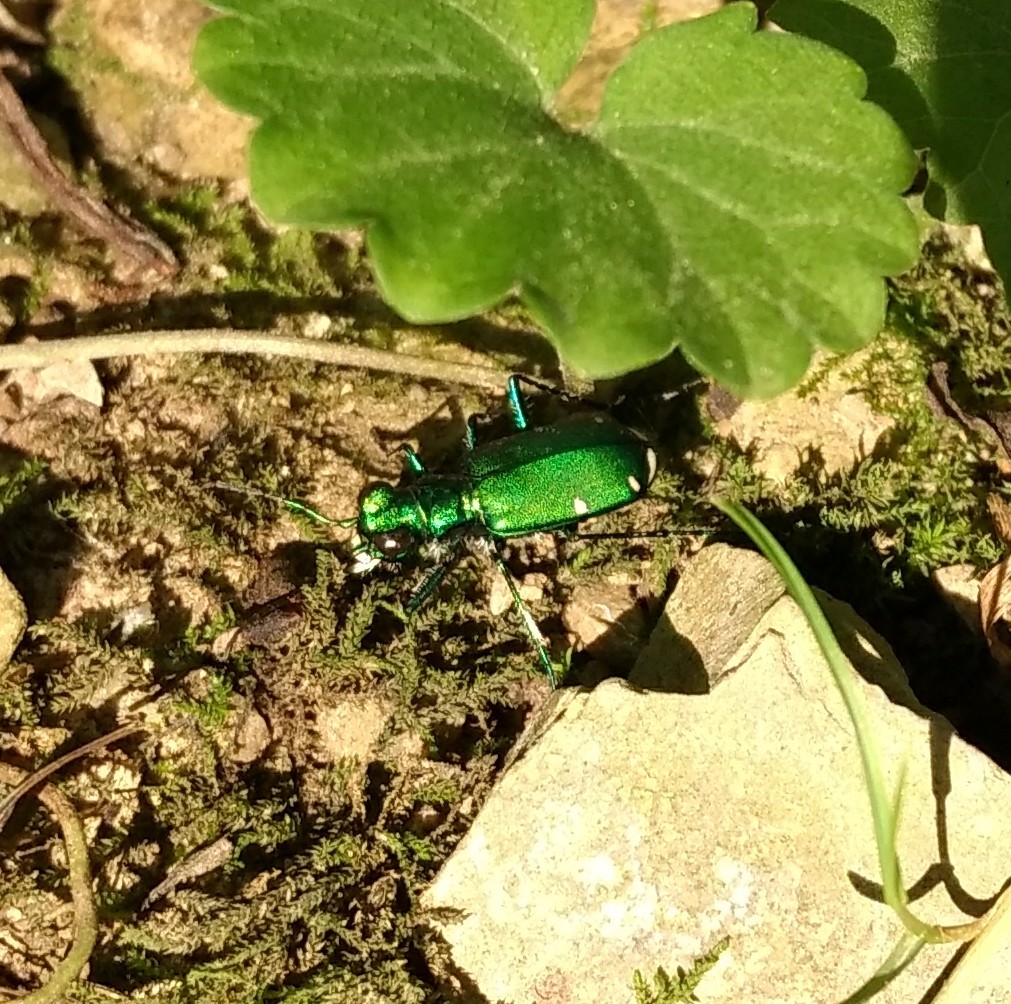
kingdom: Animalia
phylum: Arthropoda
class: Insecta
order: Coleoptera
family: Carabidae
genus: Cicindela
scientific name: Cicindela sexguttata
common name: Six-spotted tiger beetle
